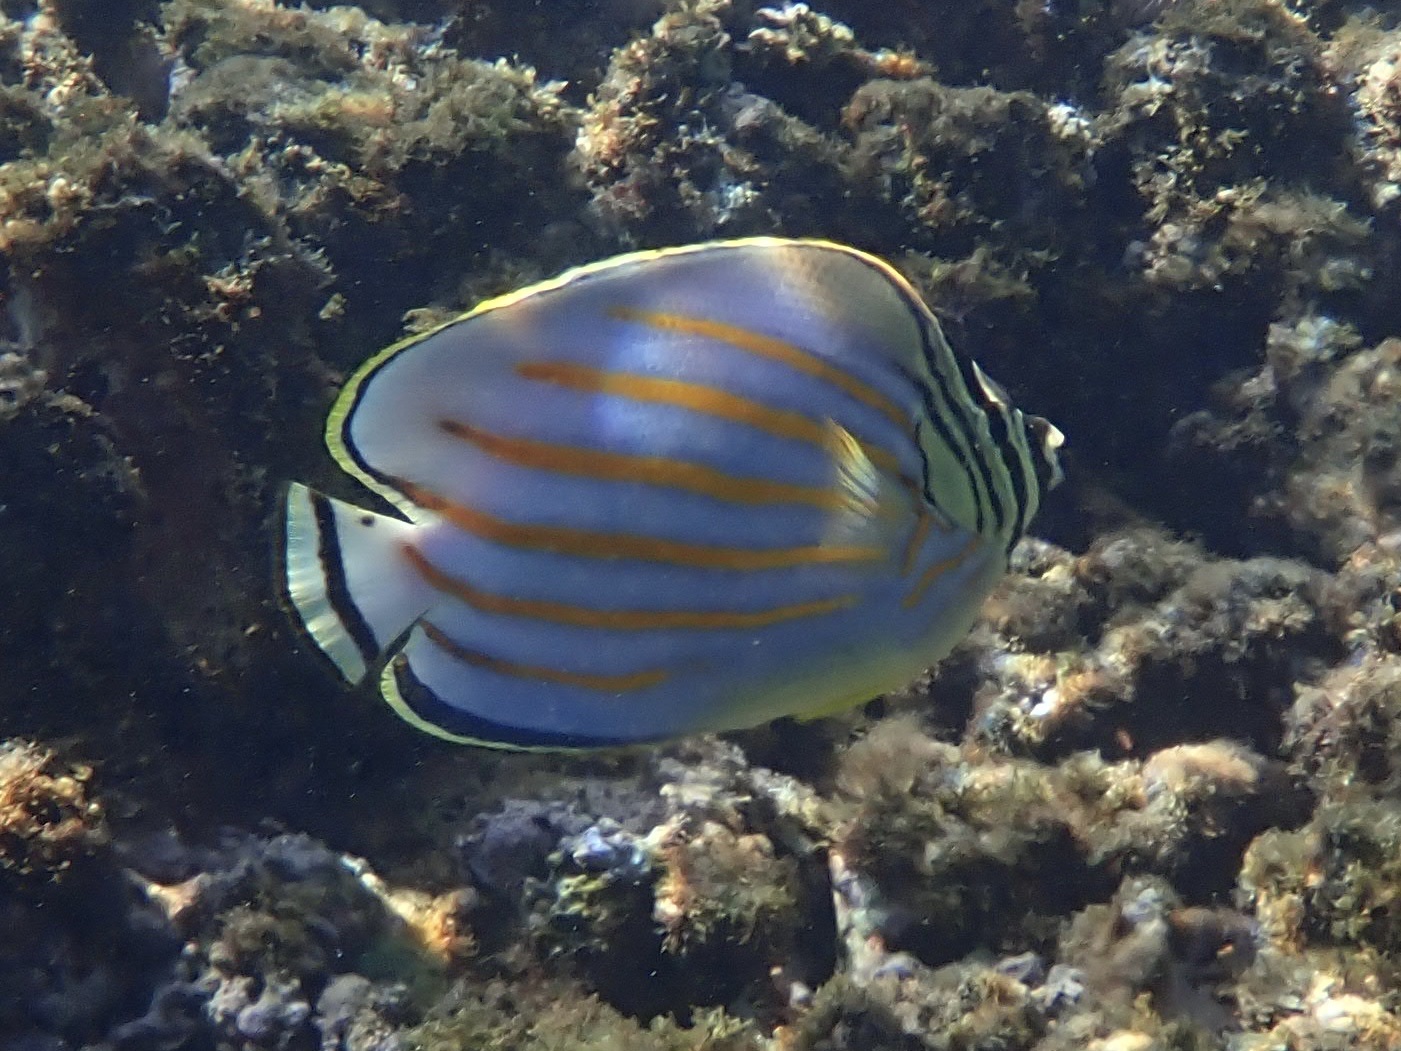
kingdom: Animalia
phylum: Chordata
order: Perciformes
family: Chaetodontidae
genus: Chaetodon
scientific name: Chaetodon ornatissimus
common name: Ornate butterflyfish
